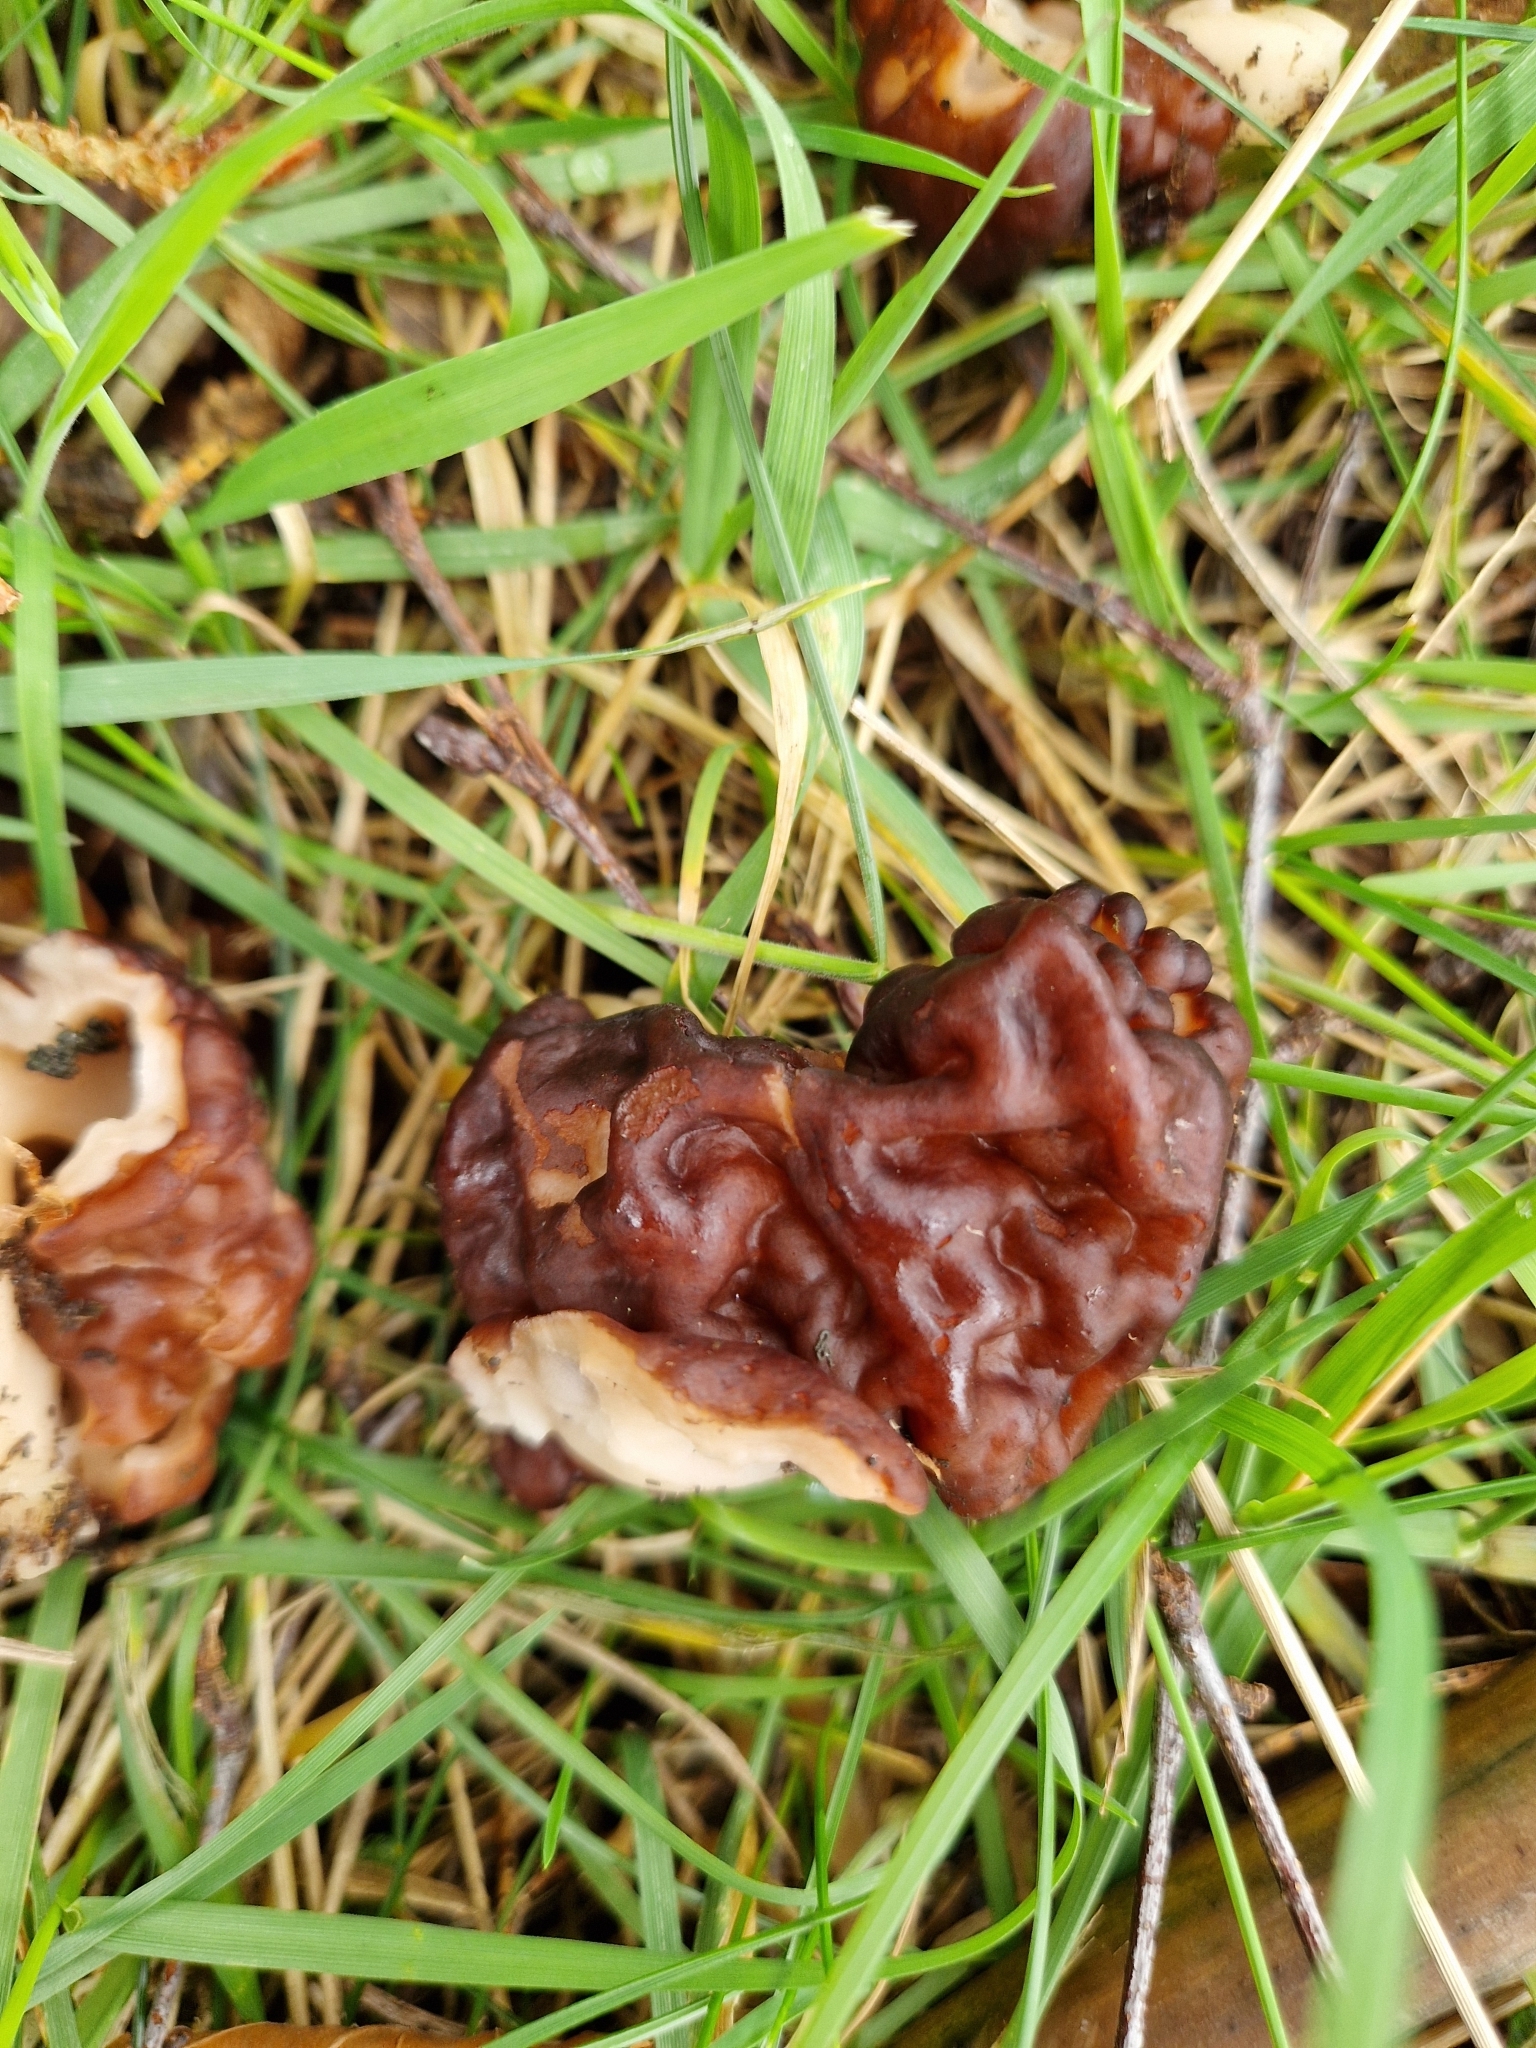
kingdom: Fungi
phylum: Ascomycota
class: Pezizomycetes
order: Pezizales
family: Discinaceae
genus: Gyromitra
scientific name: Gyromitra esculenta
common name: False morel
